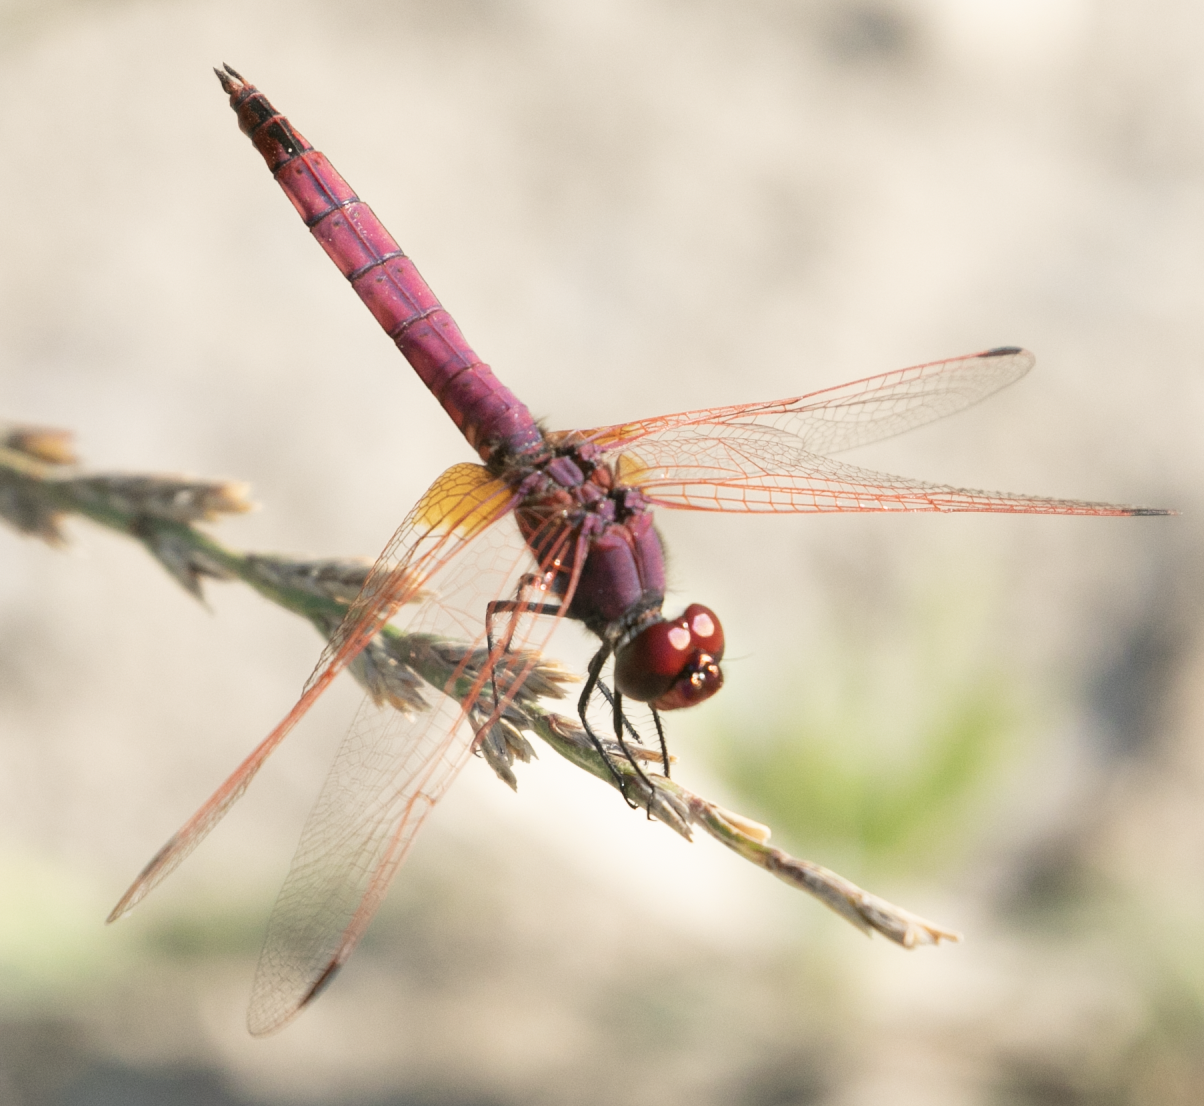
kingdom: Animalia
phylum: Arthropoda
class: Insecta
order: Odonata
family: Libellulidae
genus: Trithemis
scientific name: Trithemis annulata
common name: Violet dropwing
